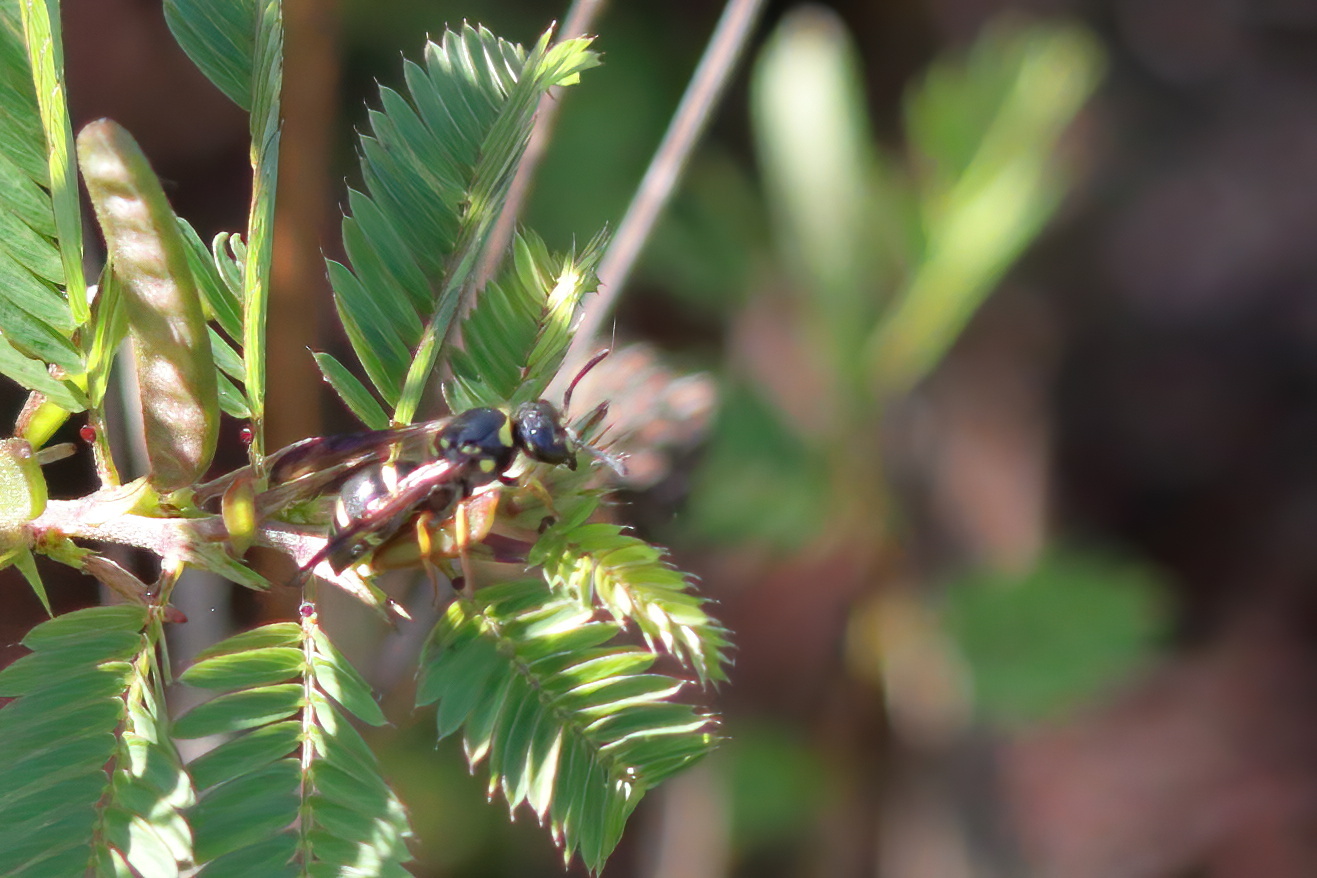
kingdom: Animalia
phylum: Arthropoda
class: Insecta
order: Hymenoptera
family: Vespidae
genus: Ancistrocerus
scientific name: Ancistrocerus campestris
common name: Smiling mason wasp
